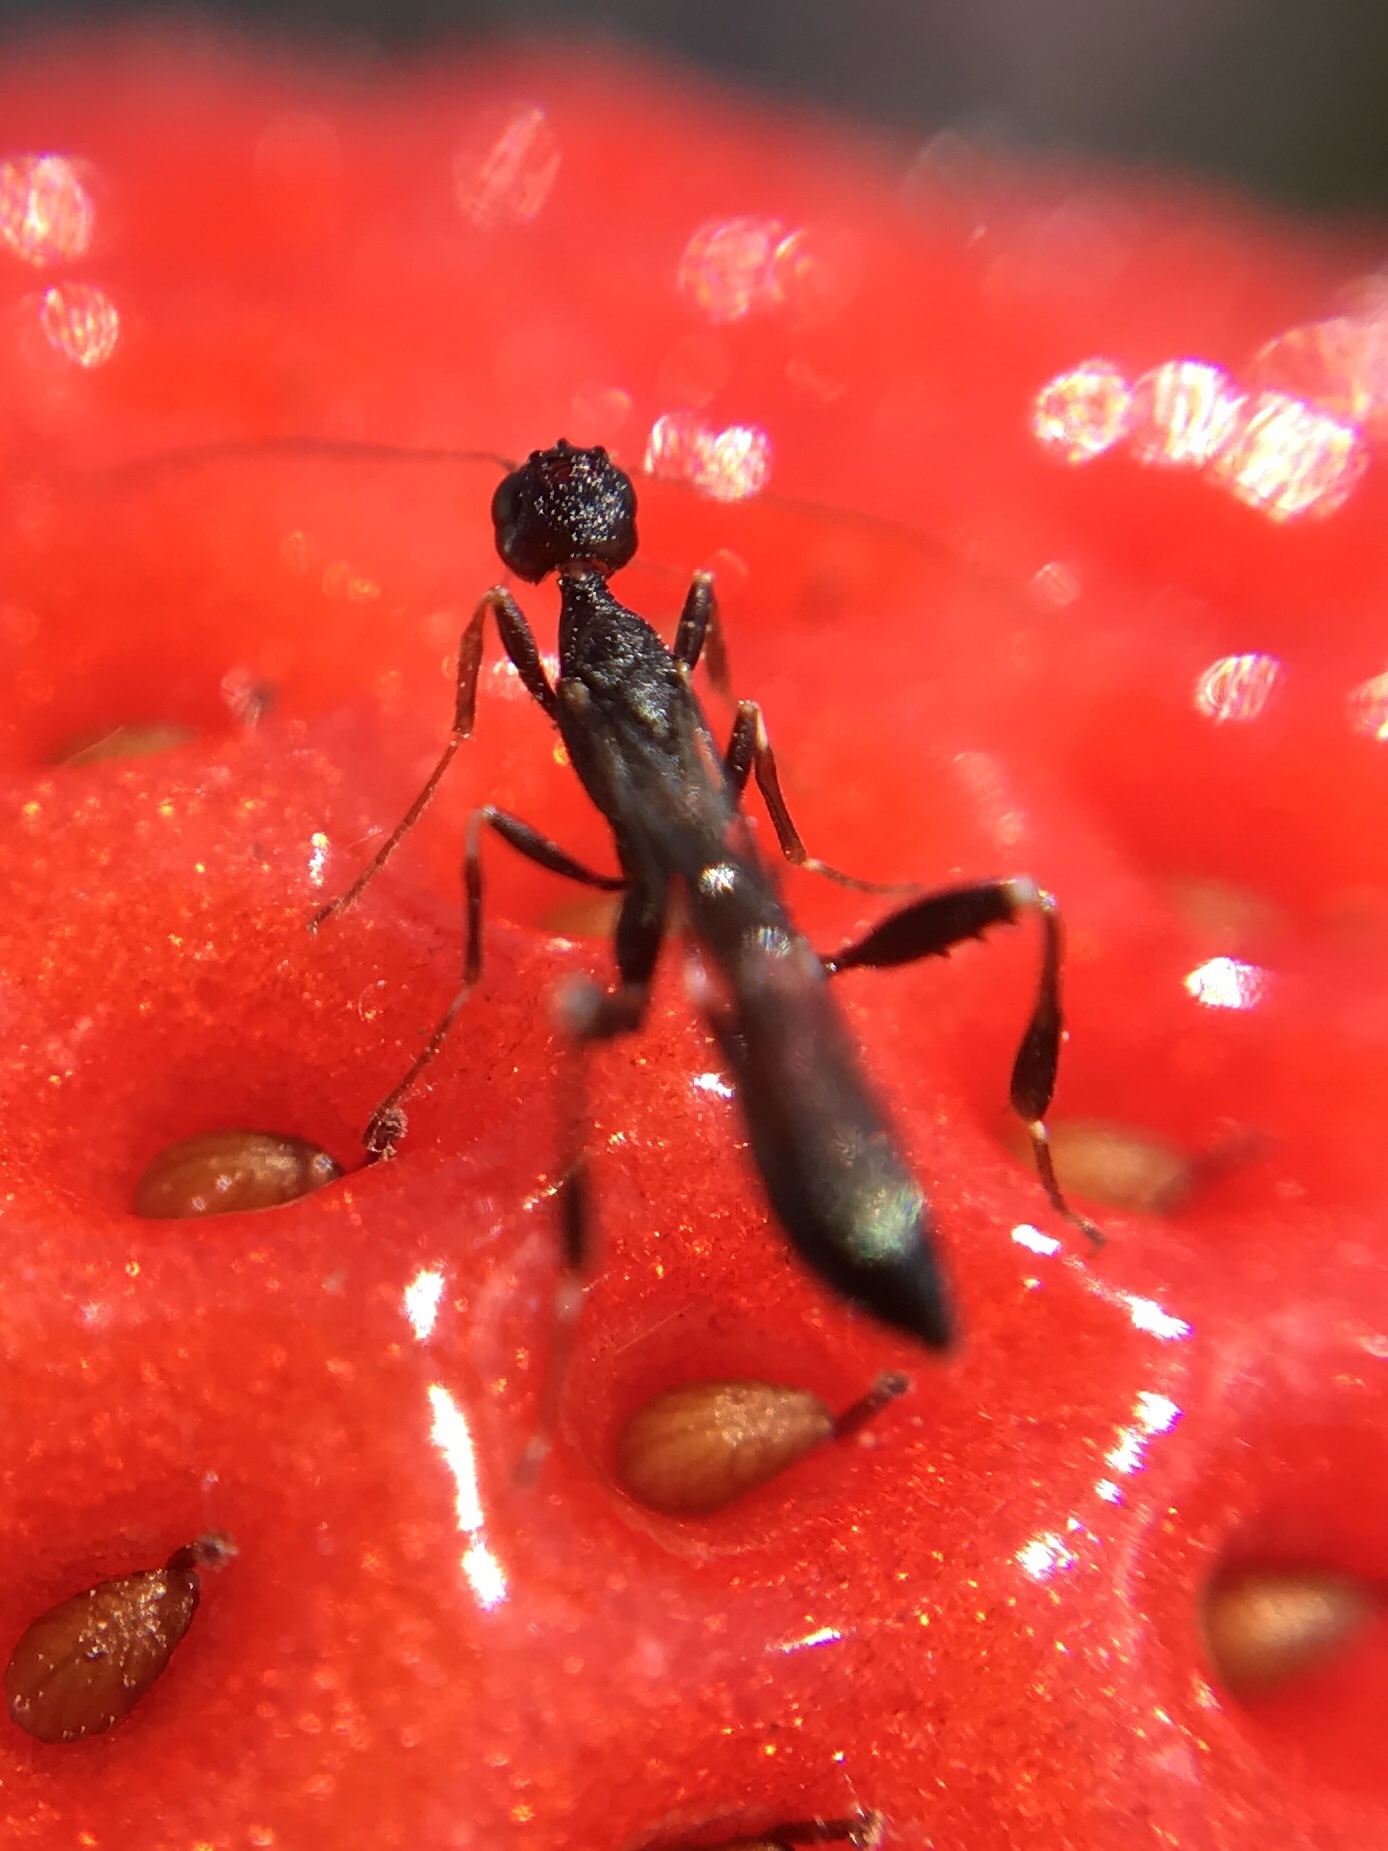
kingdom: Animalia
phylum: Arthropoda
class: Insecta
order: Hymenoptera
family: Stephanidae
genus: Stephanus
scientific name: Stephanus serrator
